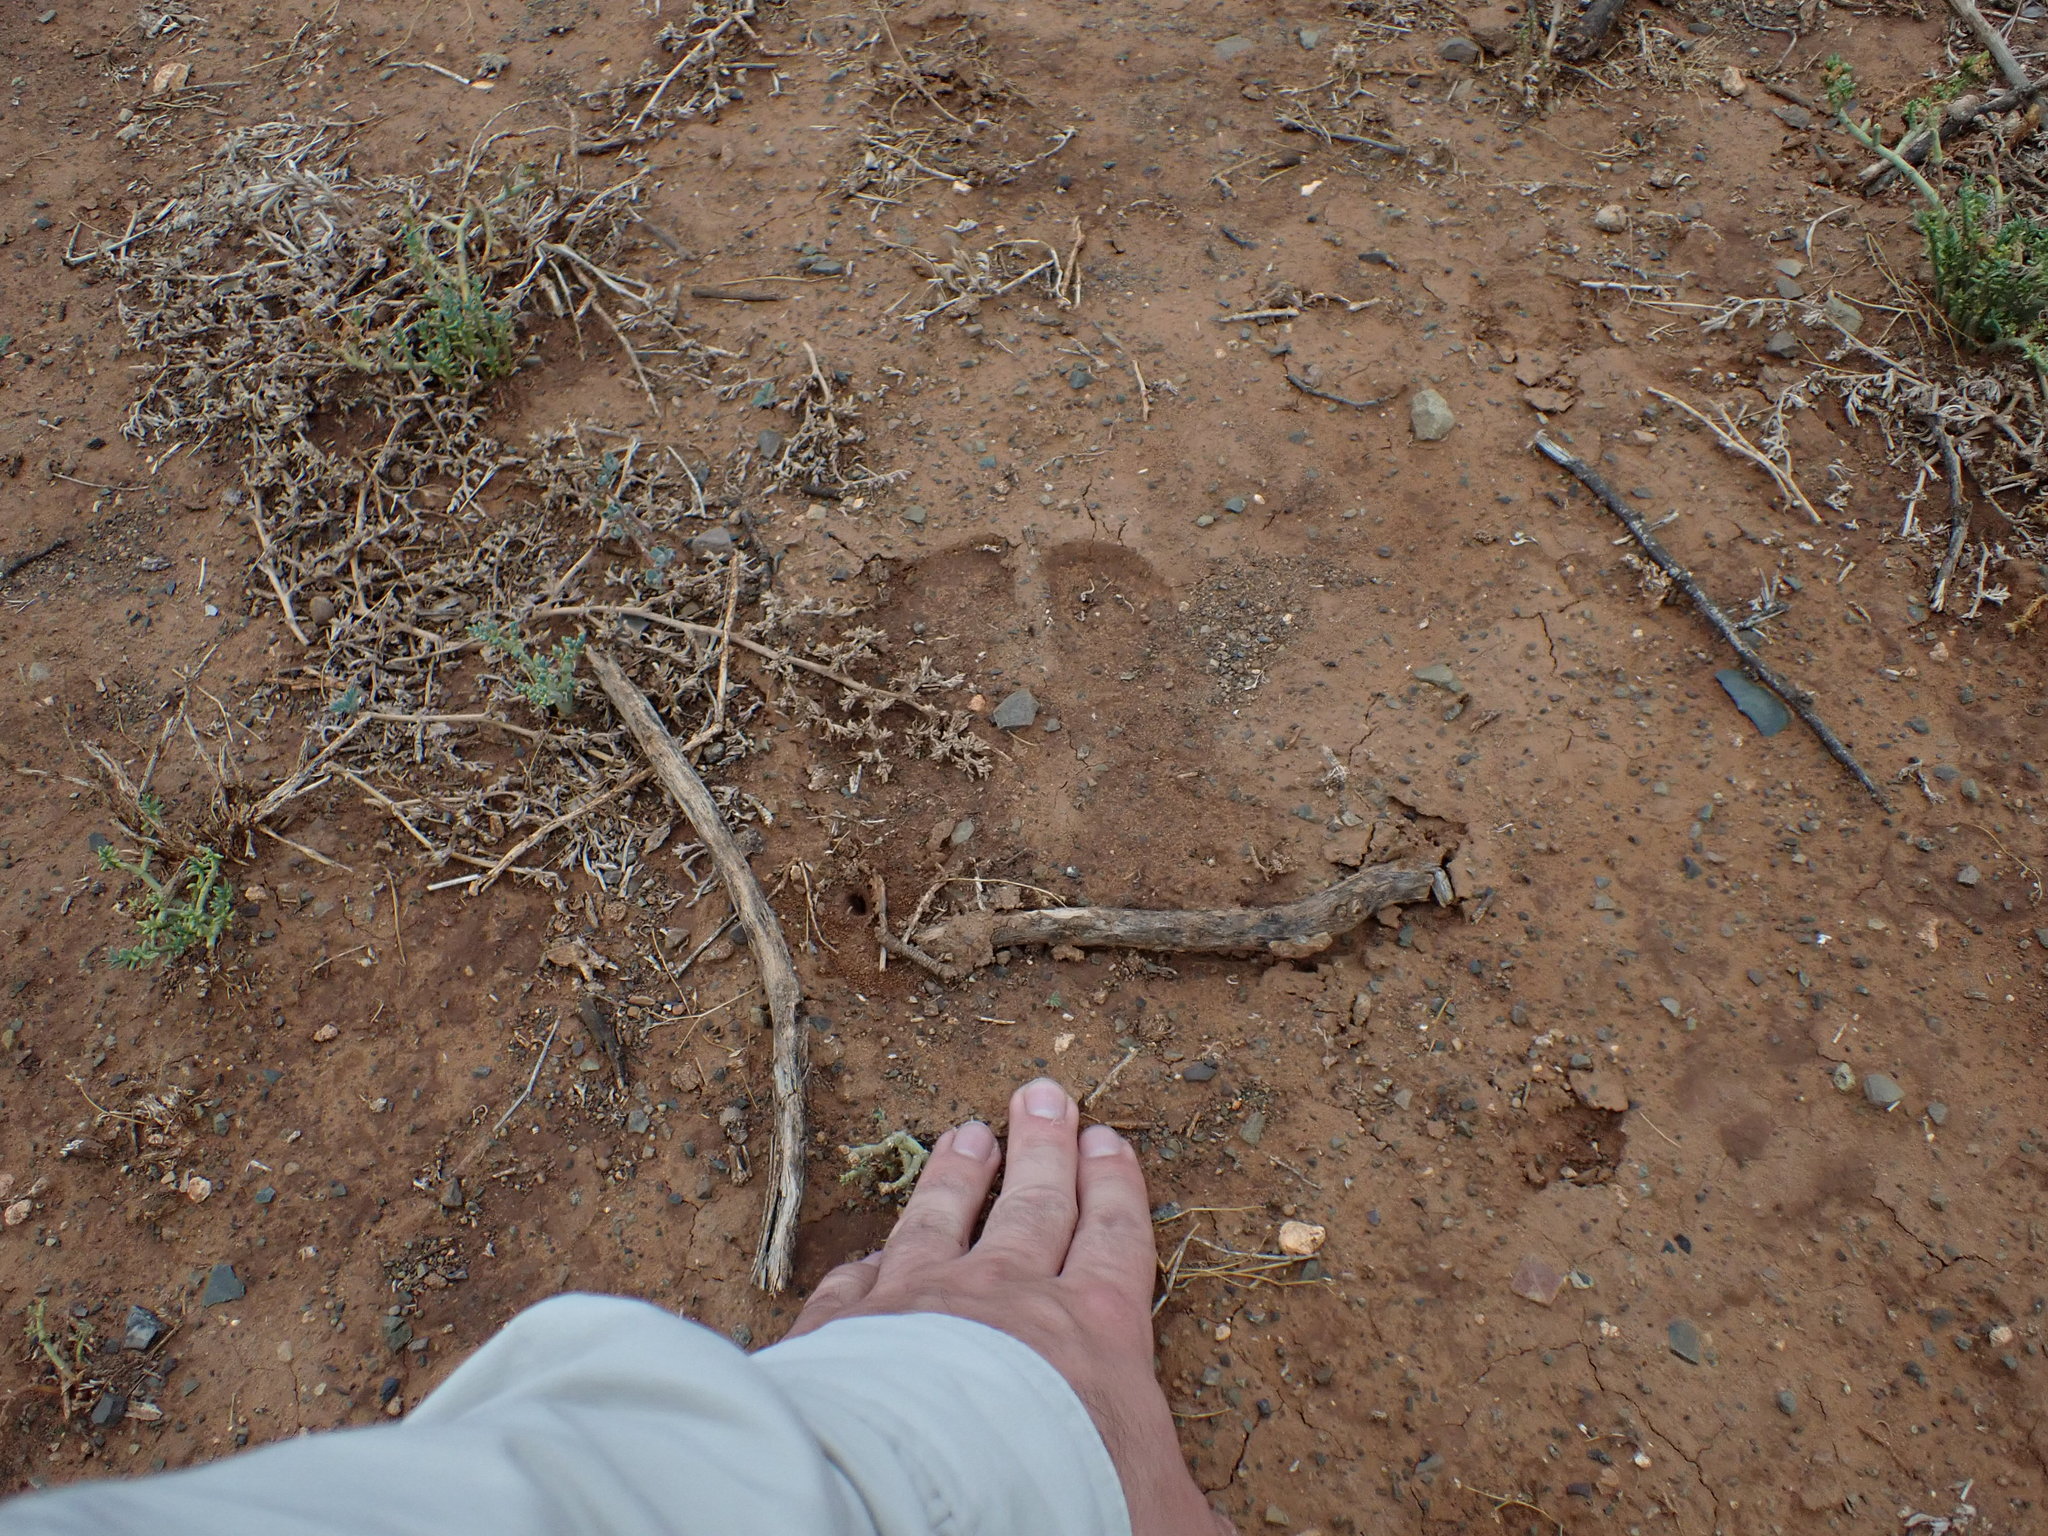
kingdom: Animalia
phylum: Chordata
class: Mammalia
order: Artiodactyla
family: Giraffidae
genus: Giraffa
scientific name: Giraffa giraffa
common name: Southern giraffe
